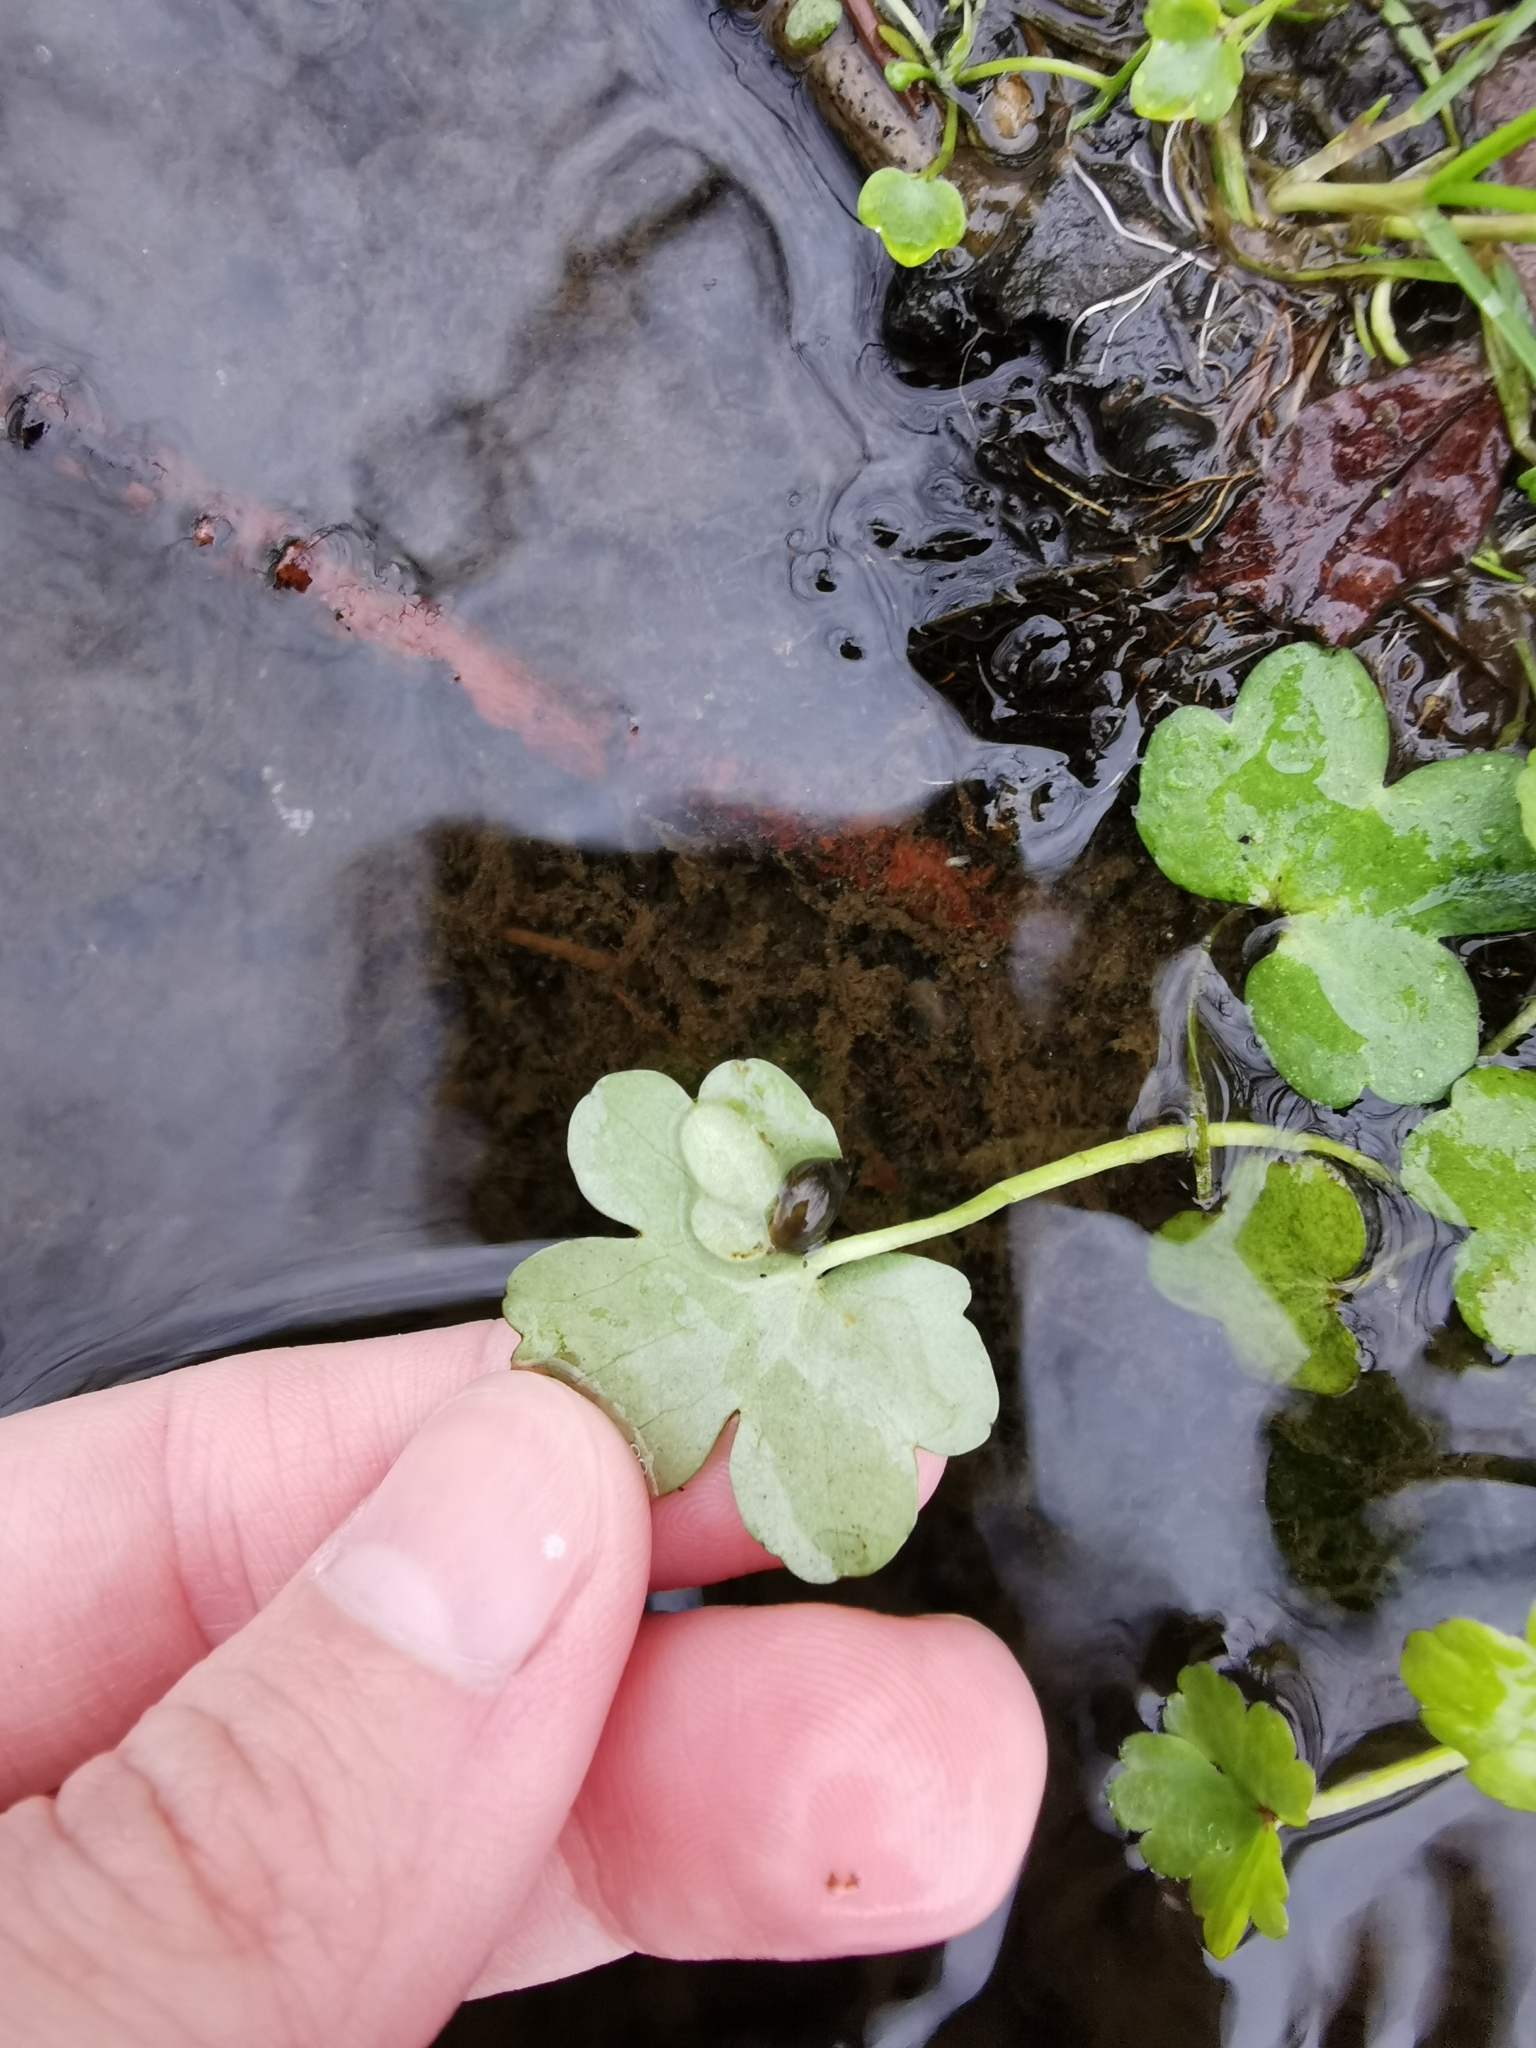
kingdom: Plantae
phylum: Tracheophyta
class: Magnoliopsida
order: Ranunculales
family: Ranunculaceae
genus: Ranunculus
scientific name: Ranunculus sceleratus
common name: Celery-leaved buttercup
